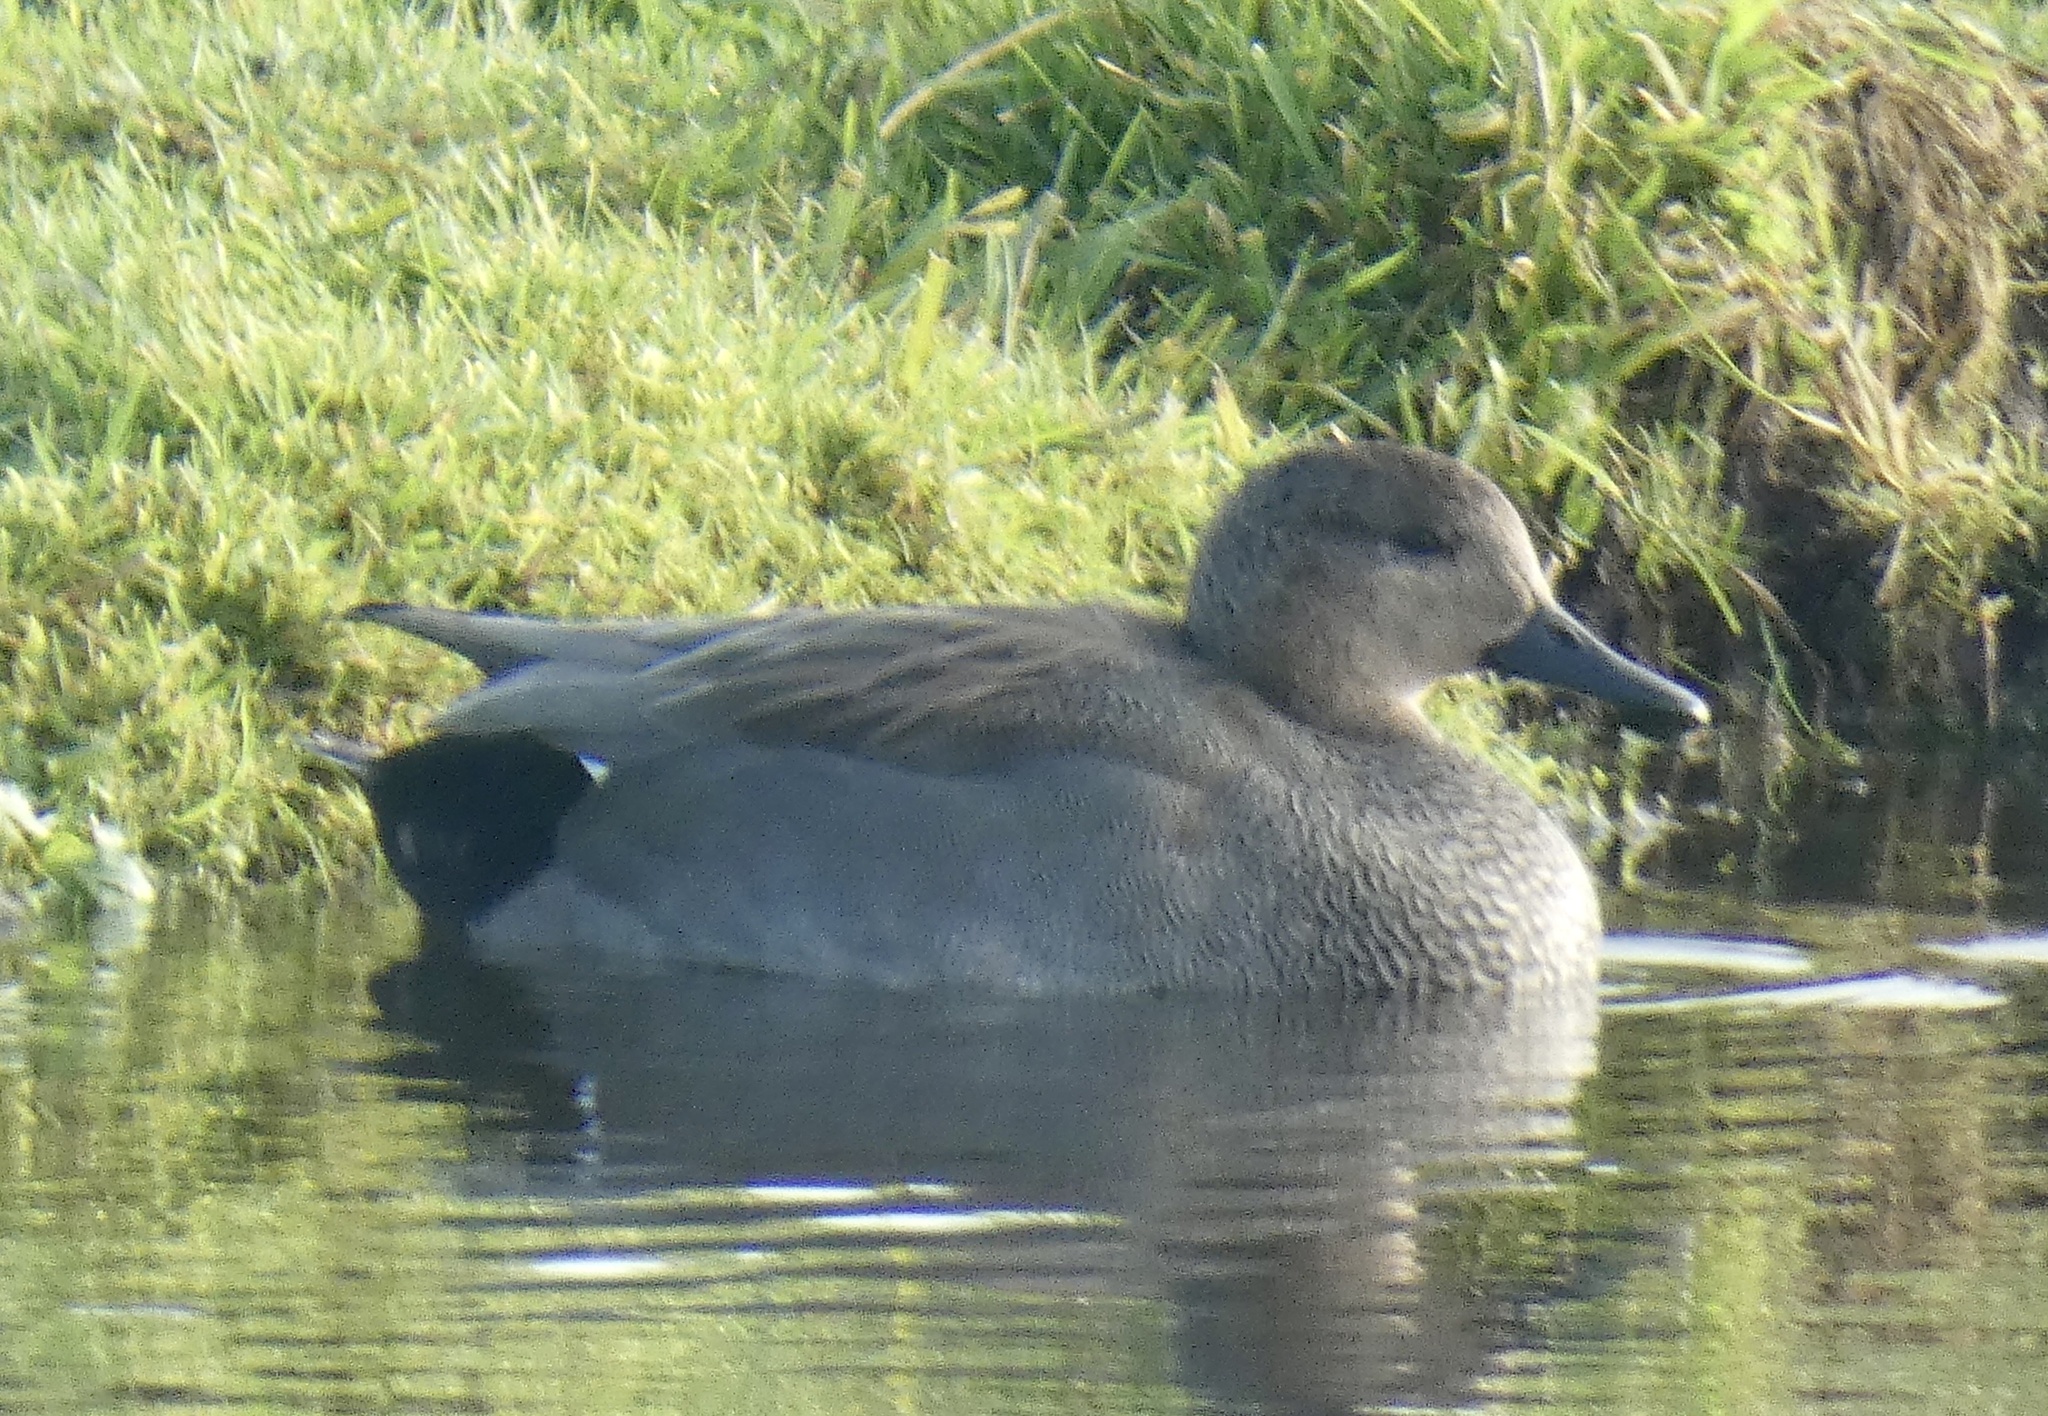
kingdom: Animalia
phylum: Chordata
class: Aves
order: Anseriformes
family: Anatidae
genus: Mareca
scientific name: Mareca strepera
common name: Gadwall
